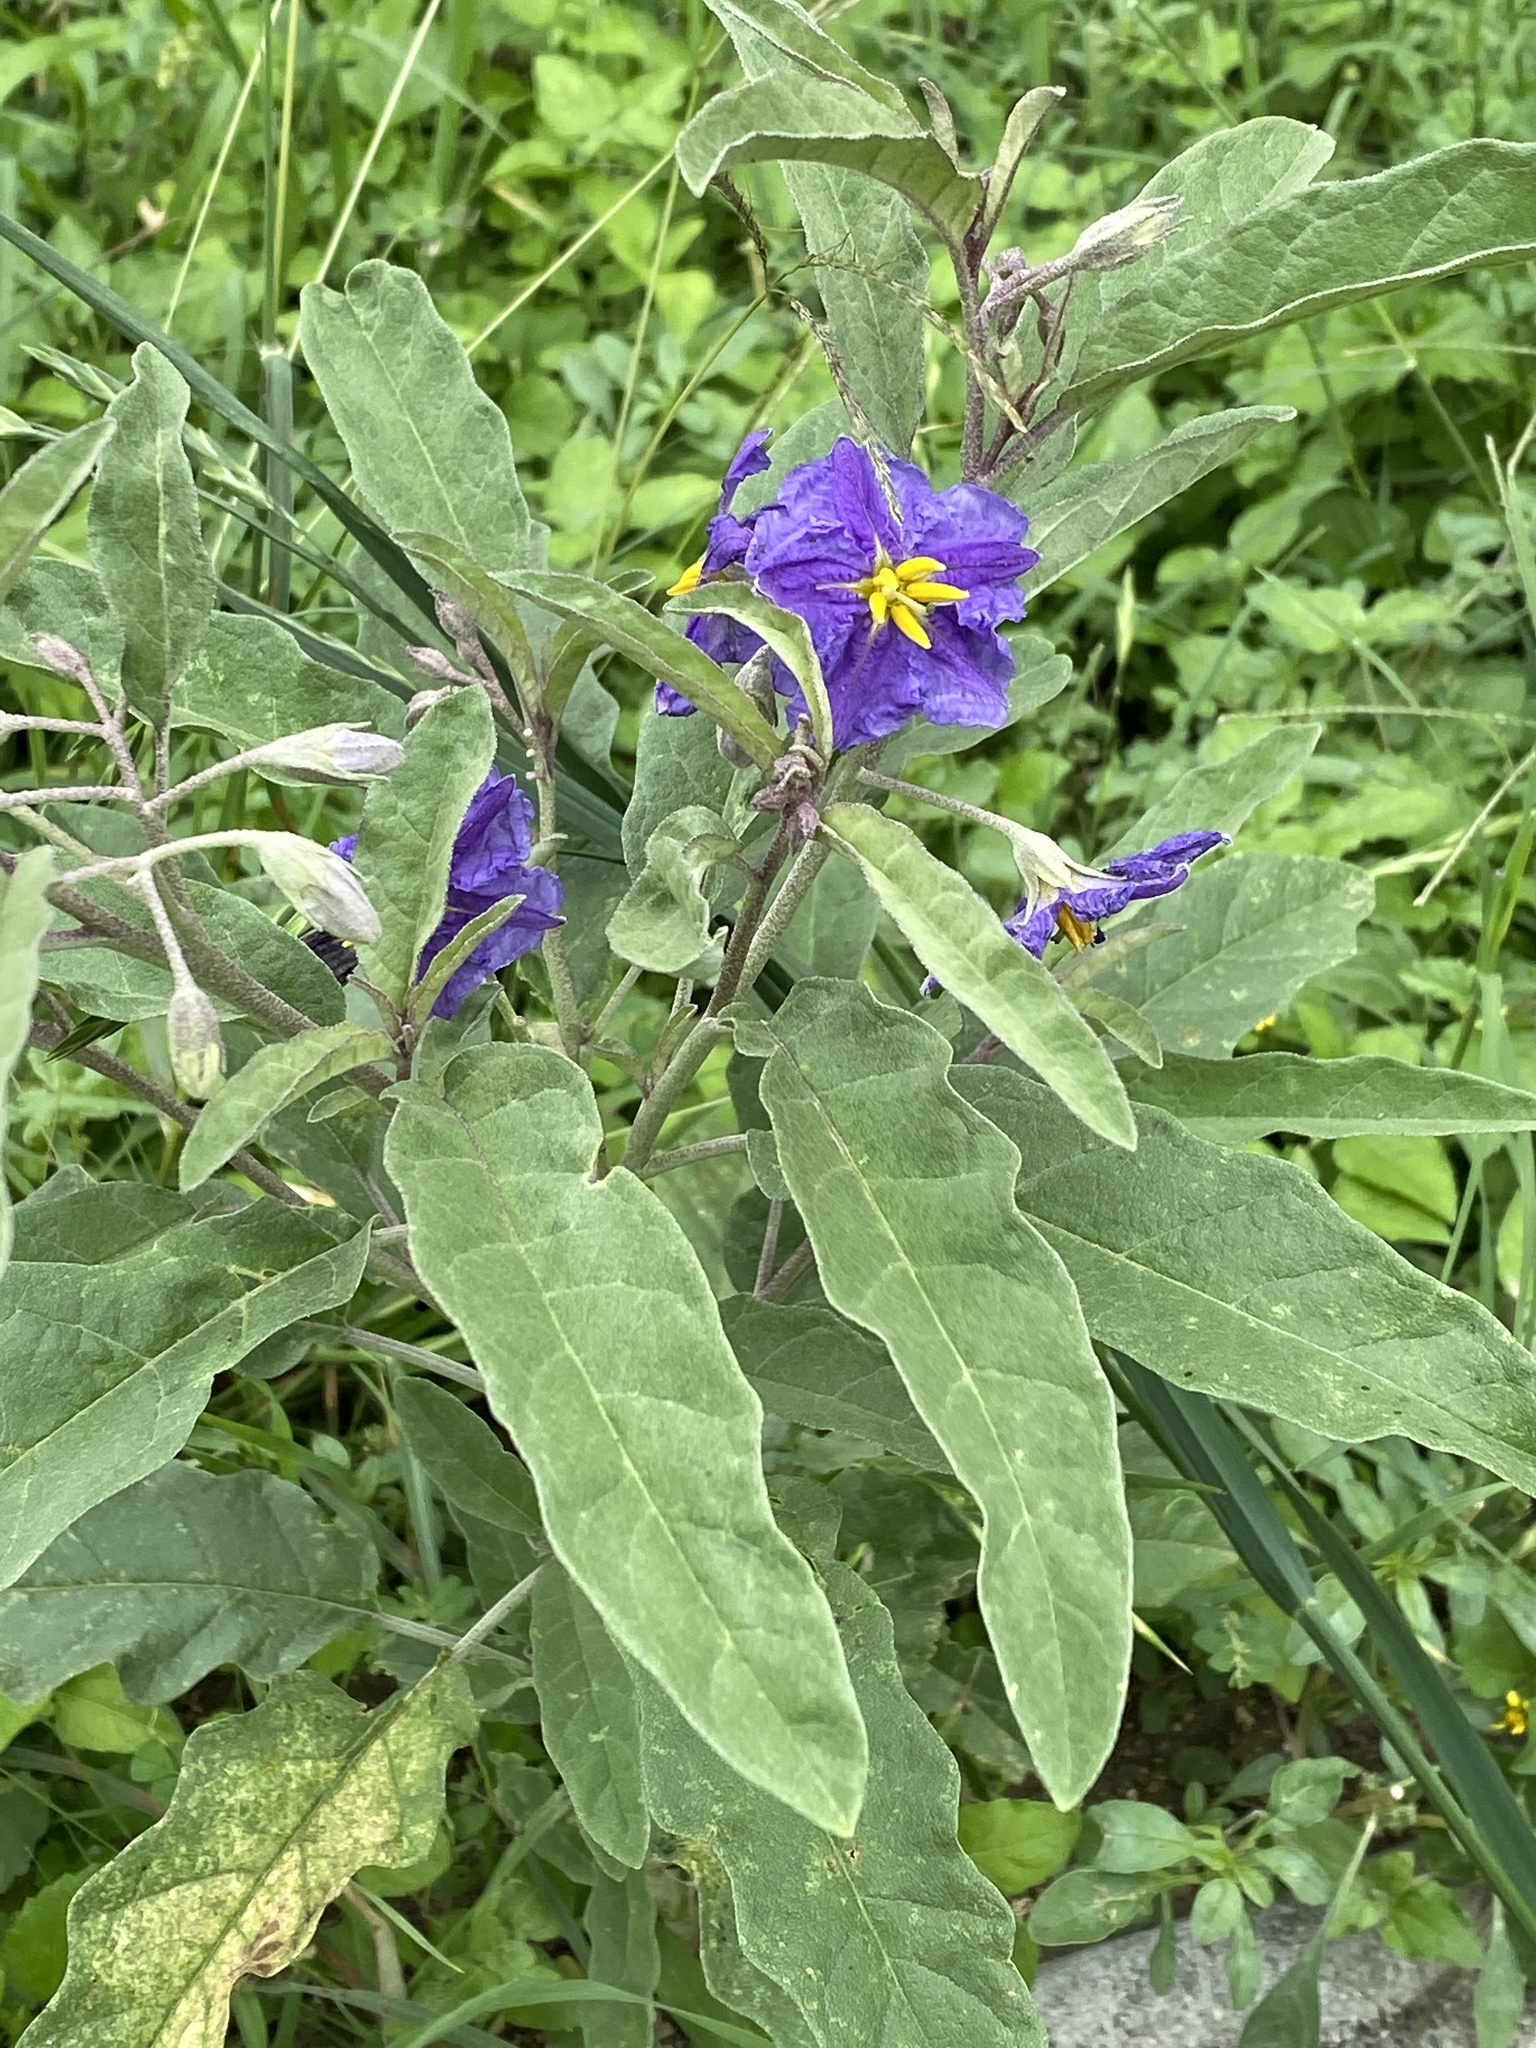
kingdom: Plantae
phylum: Tracheophyta
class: Magnoliopsida
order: Solanales
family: Solanaceae
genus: Solanum
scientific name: Solanum elaeagnifolium
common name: Silverleaf nightshade
